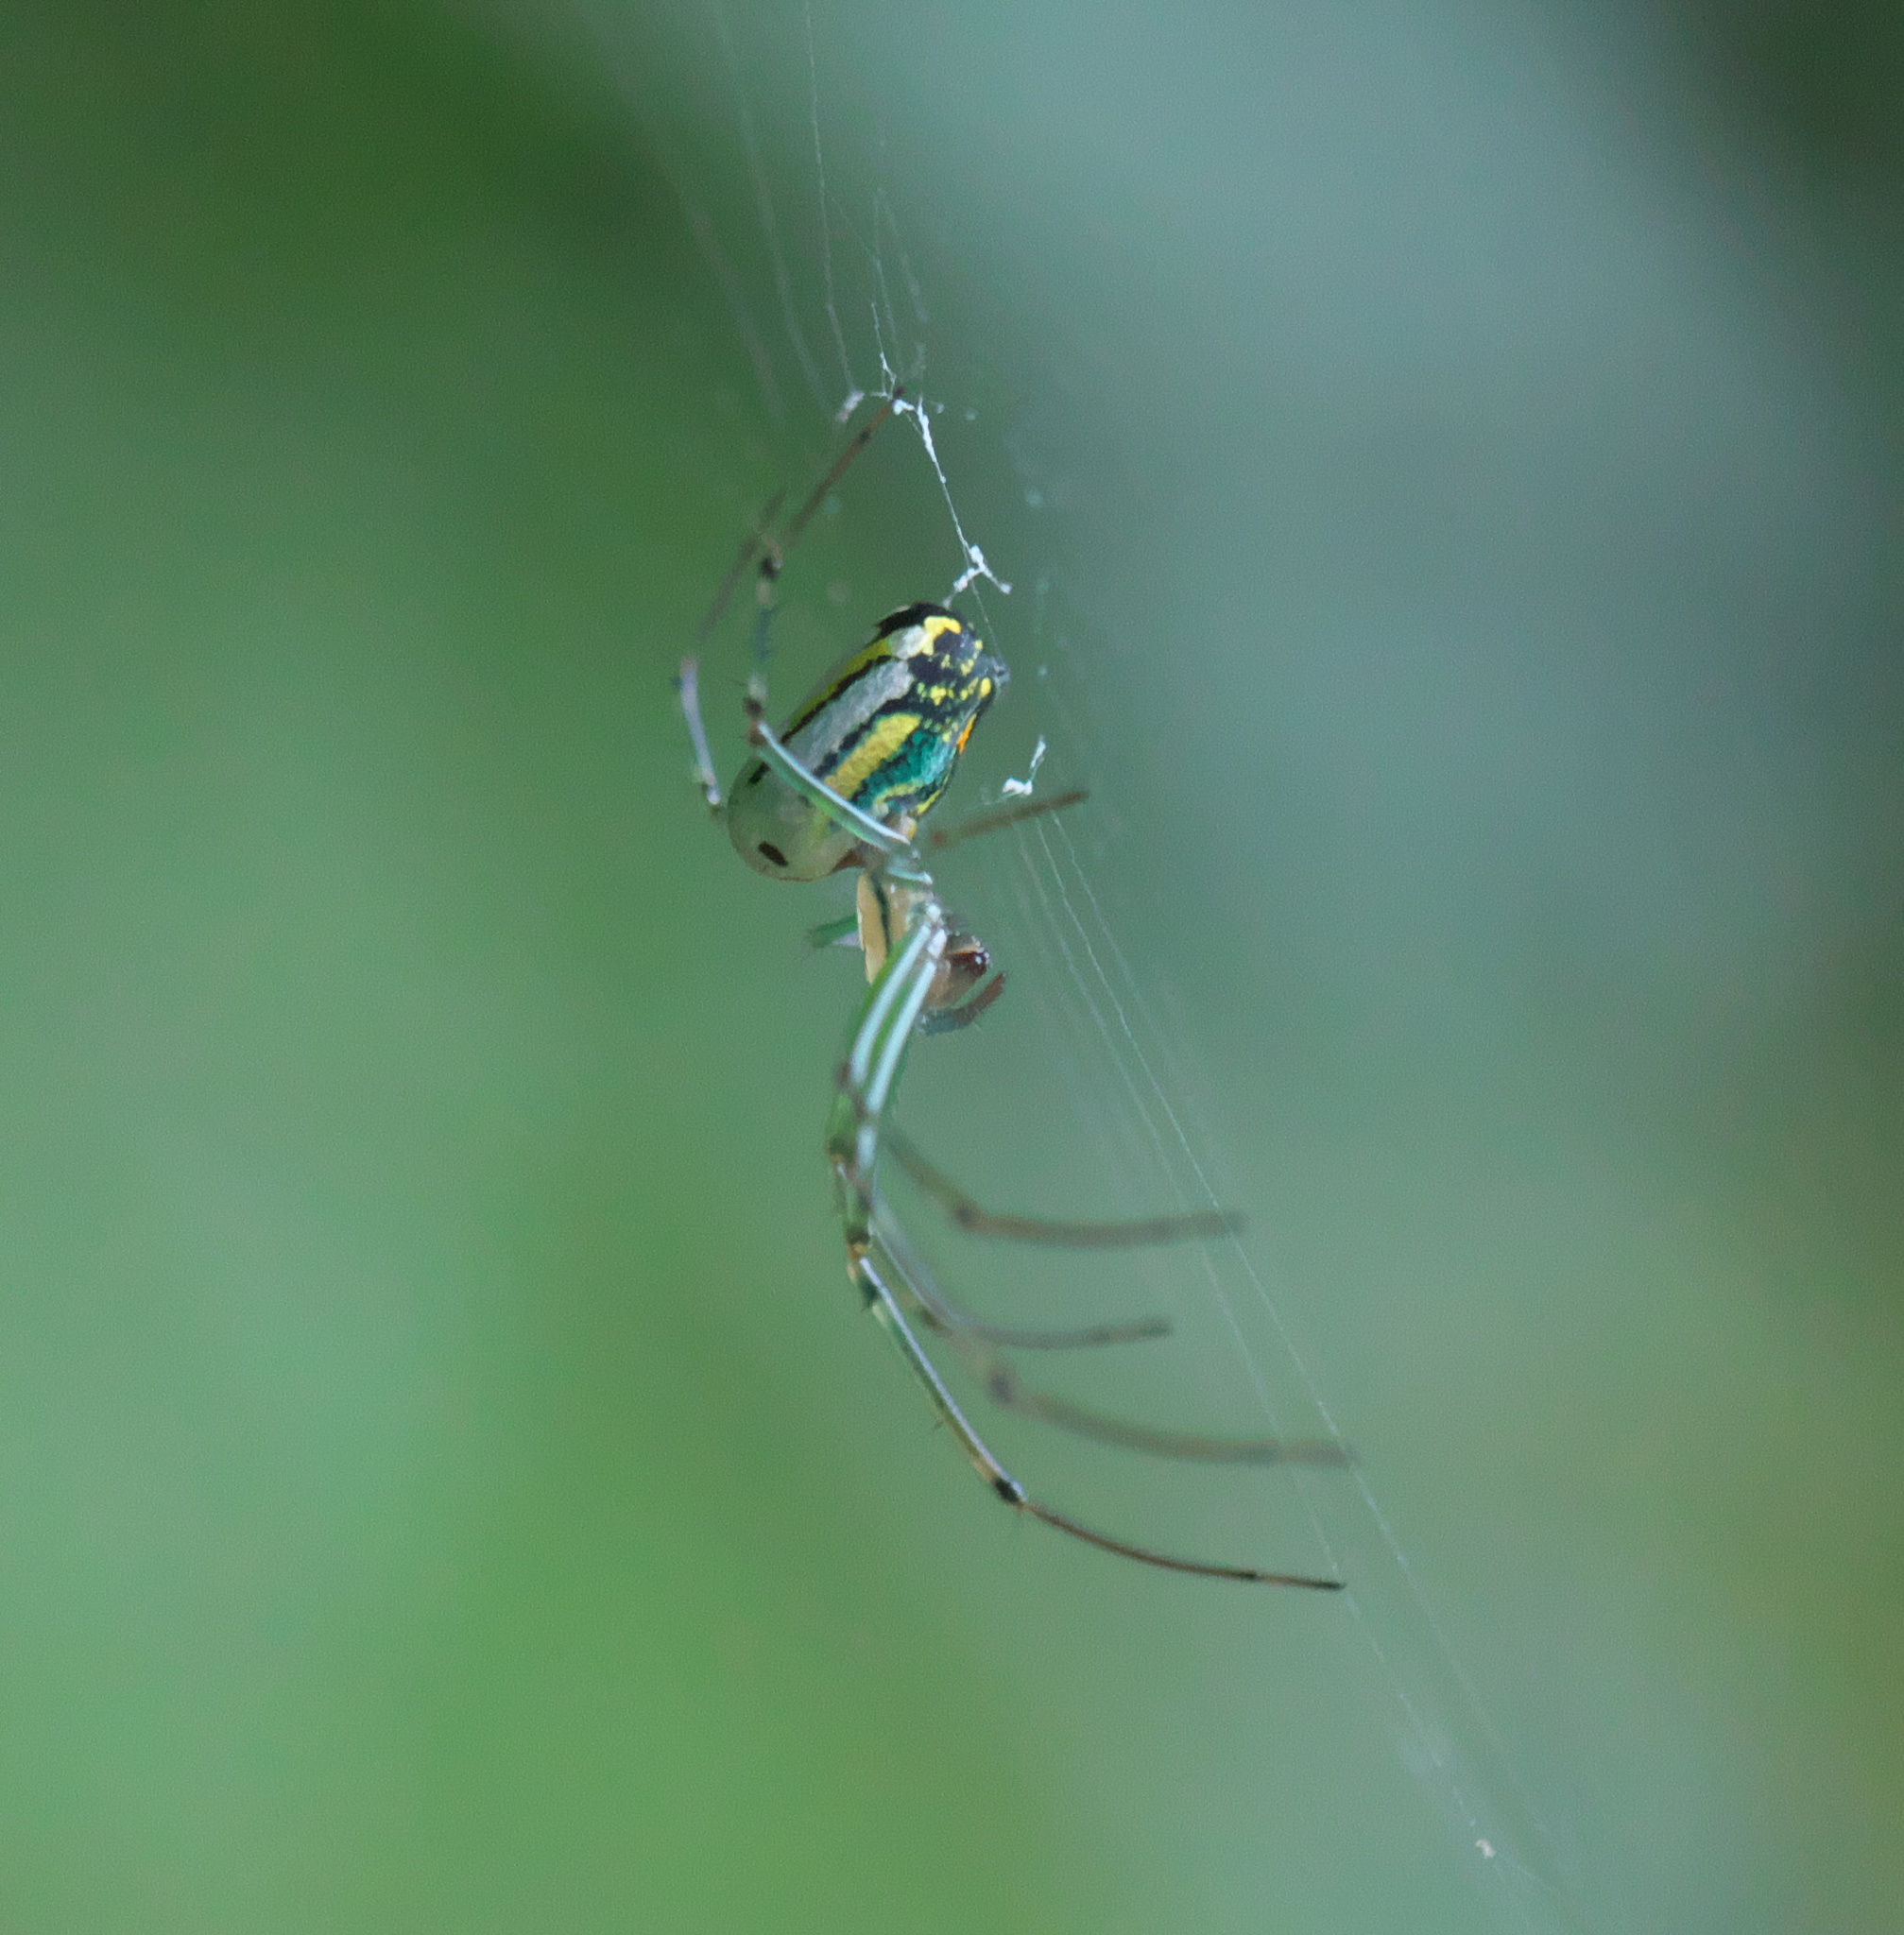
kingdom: Animalia
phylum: Arthropoda
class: Arachnida
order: Araneae
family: Tetragnathidae
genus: Leucauge
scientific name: Leucauge venusta
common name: Longjawed orb weavers
